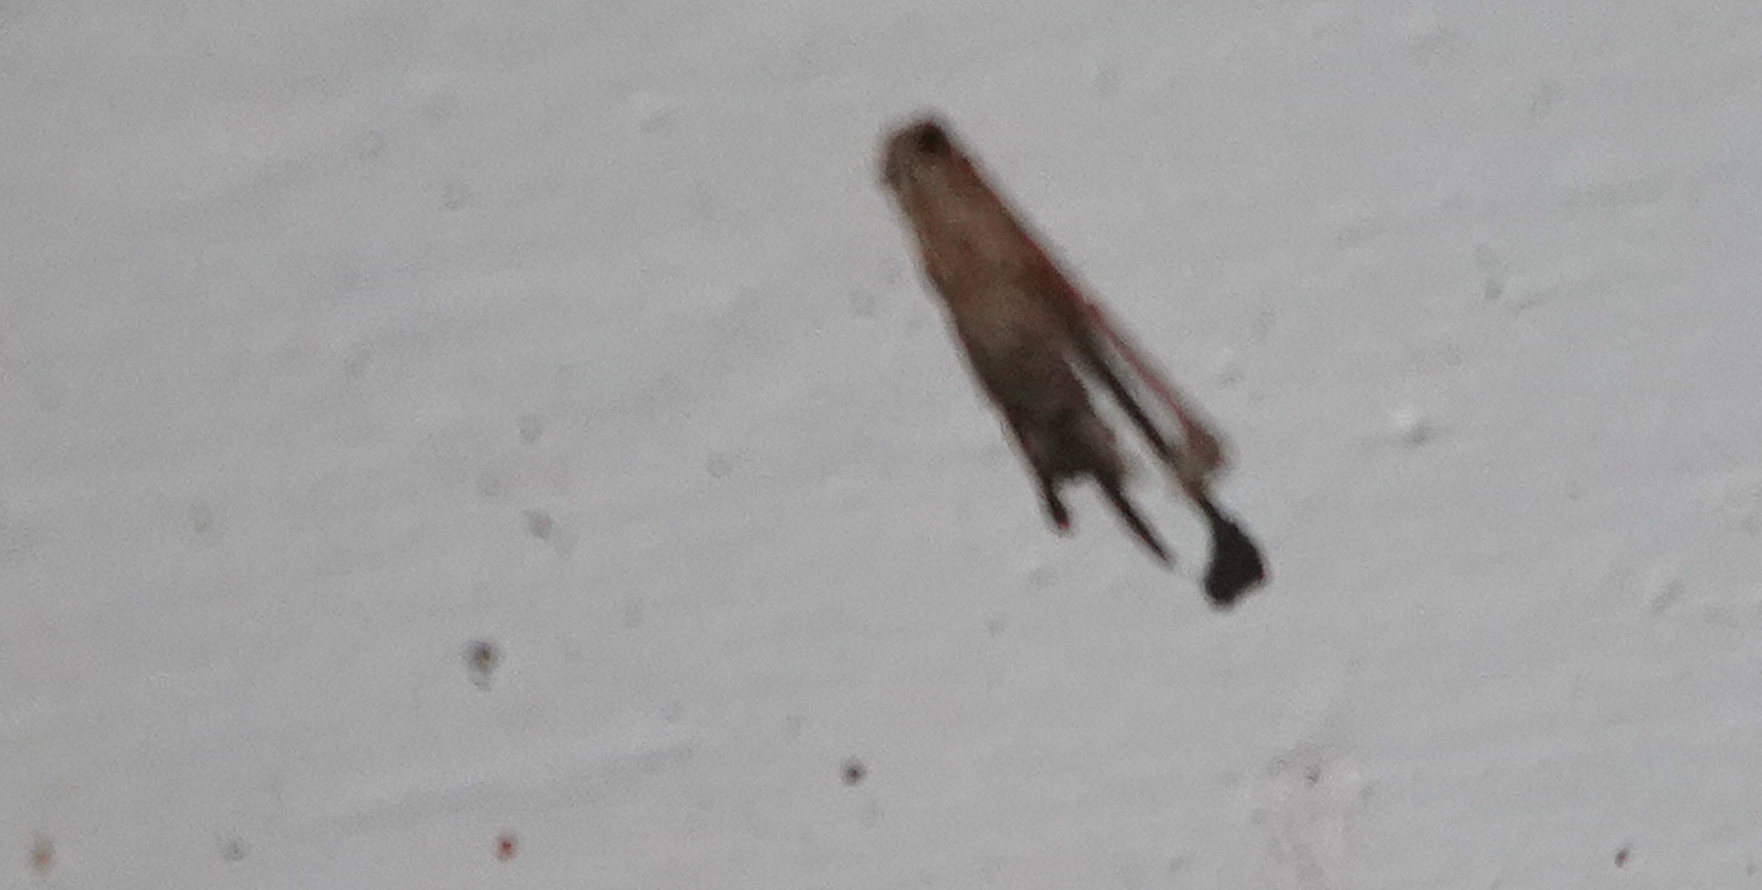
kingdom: Animalia
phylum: Arthropoda
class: Insecta
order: Lepidoptera
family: Psychidae
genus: Psyche
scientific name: Psyche casta
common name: Common sweep
